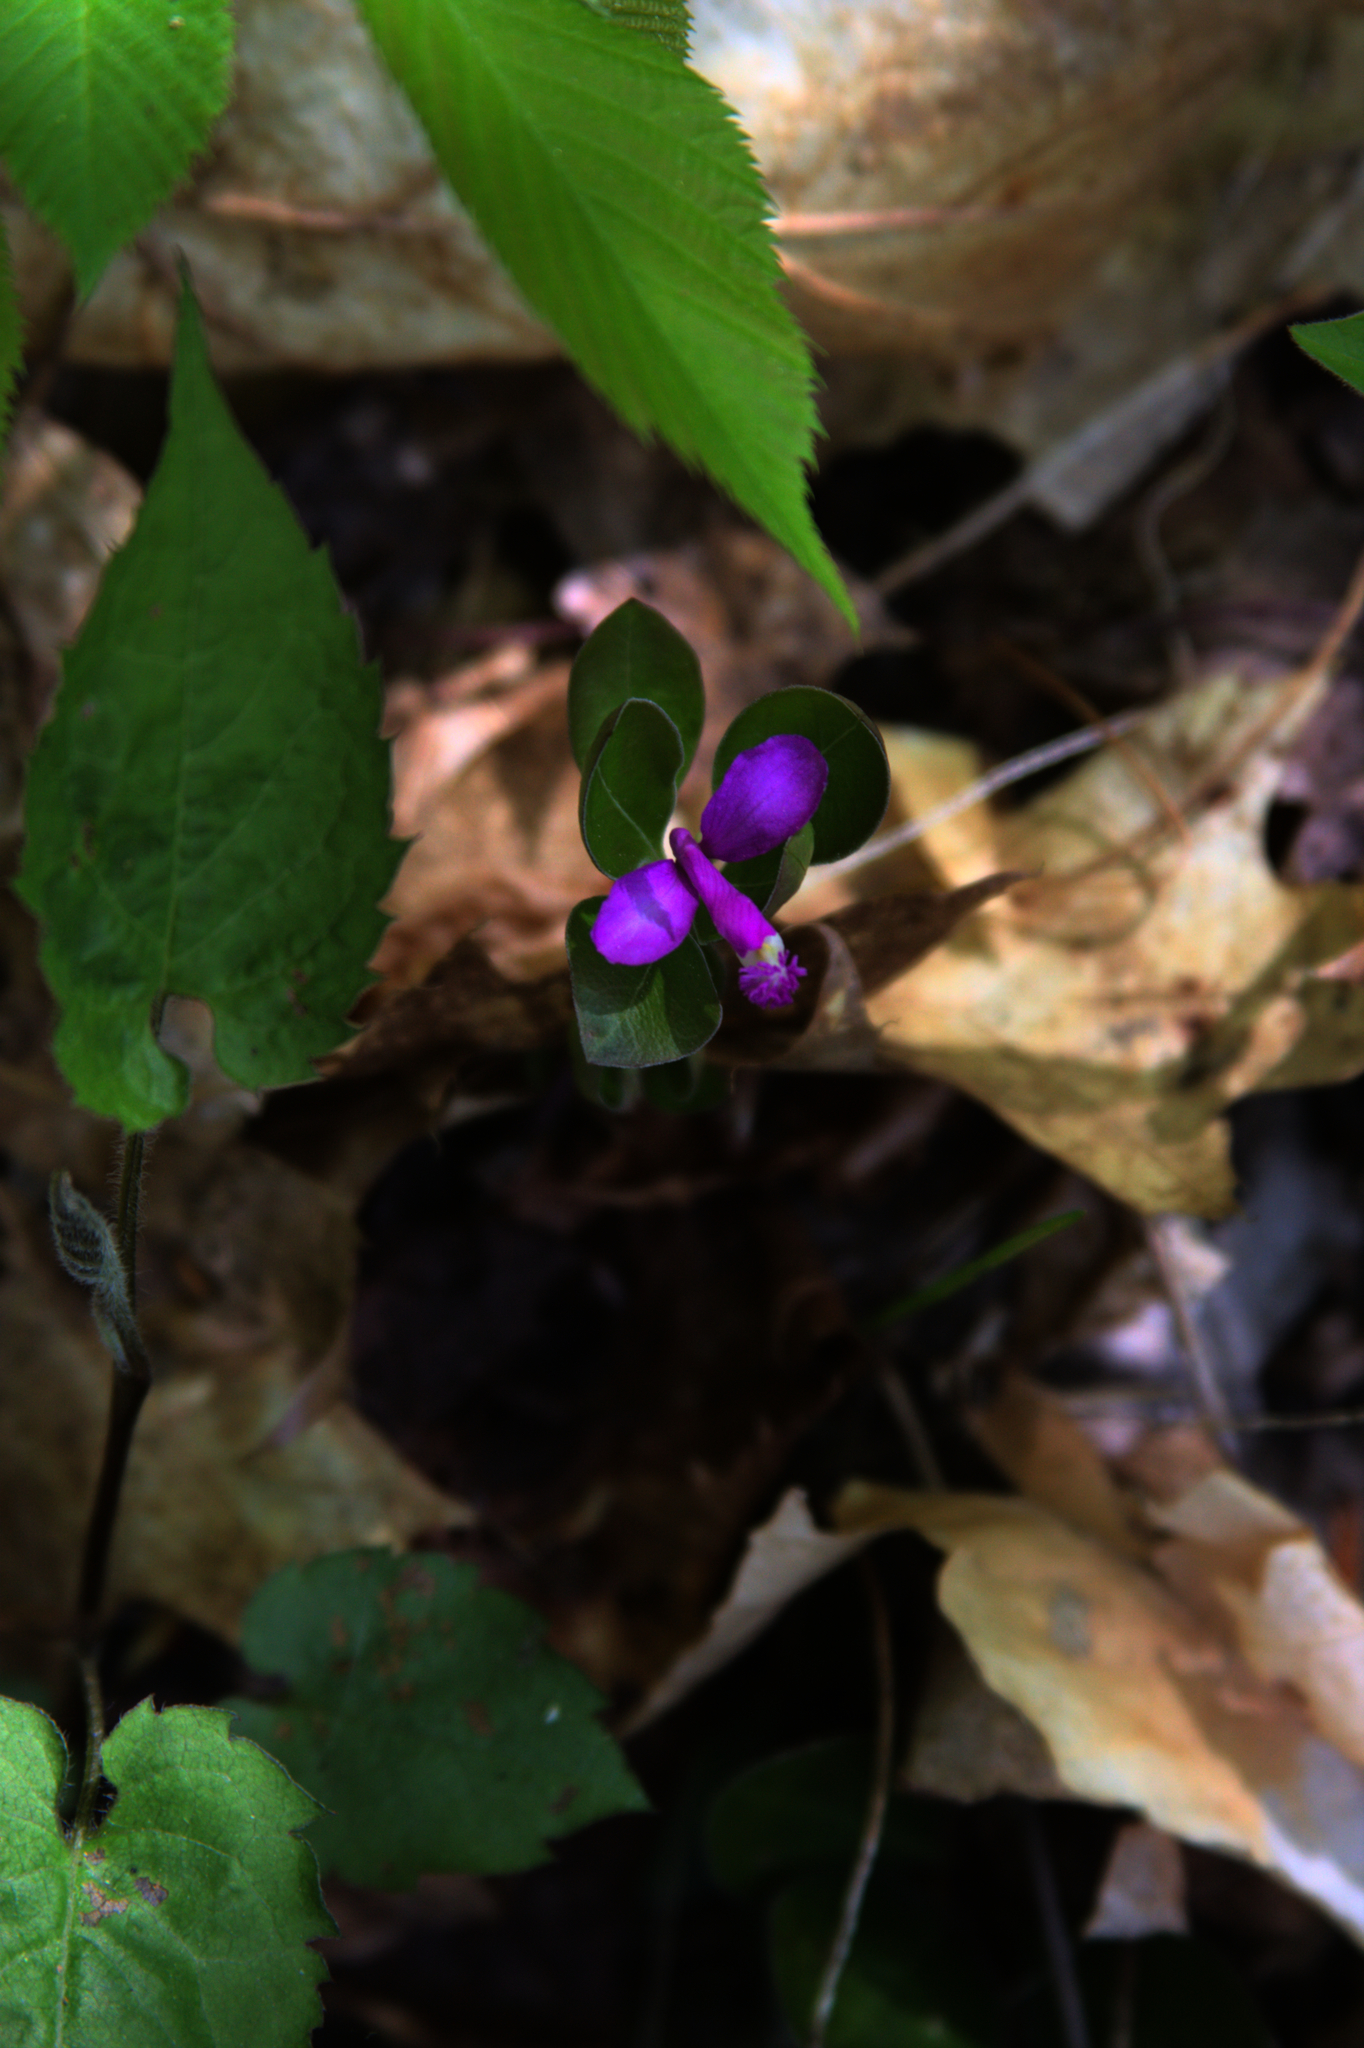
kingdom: Plantae
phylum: Tracheophyta
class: Magnoliopsida
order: Fabales
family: Polygalaceae
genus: Polygaloides
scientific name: Polygaloides paucifolia
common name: Bird-on-the-wing
